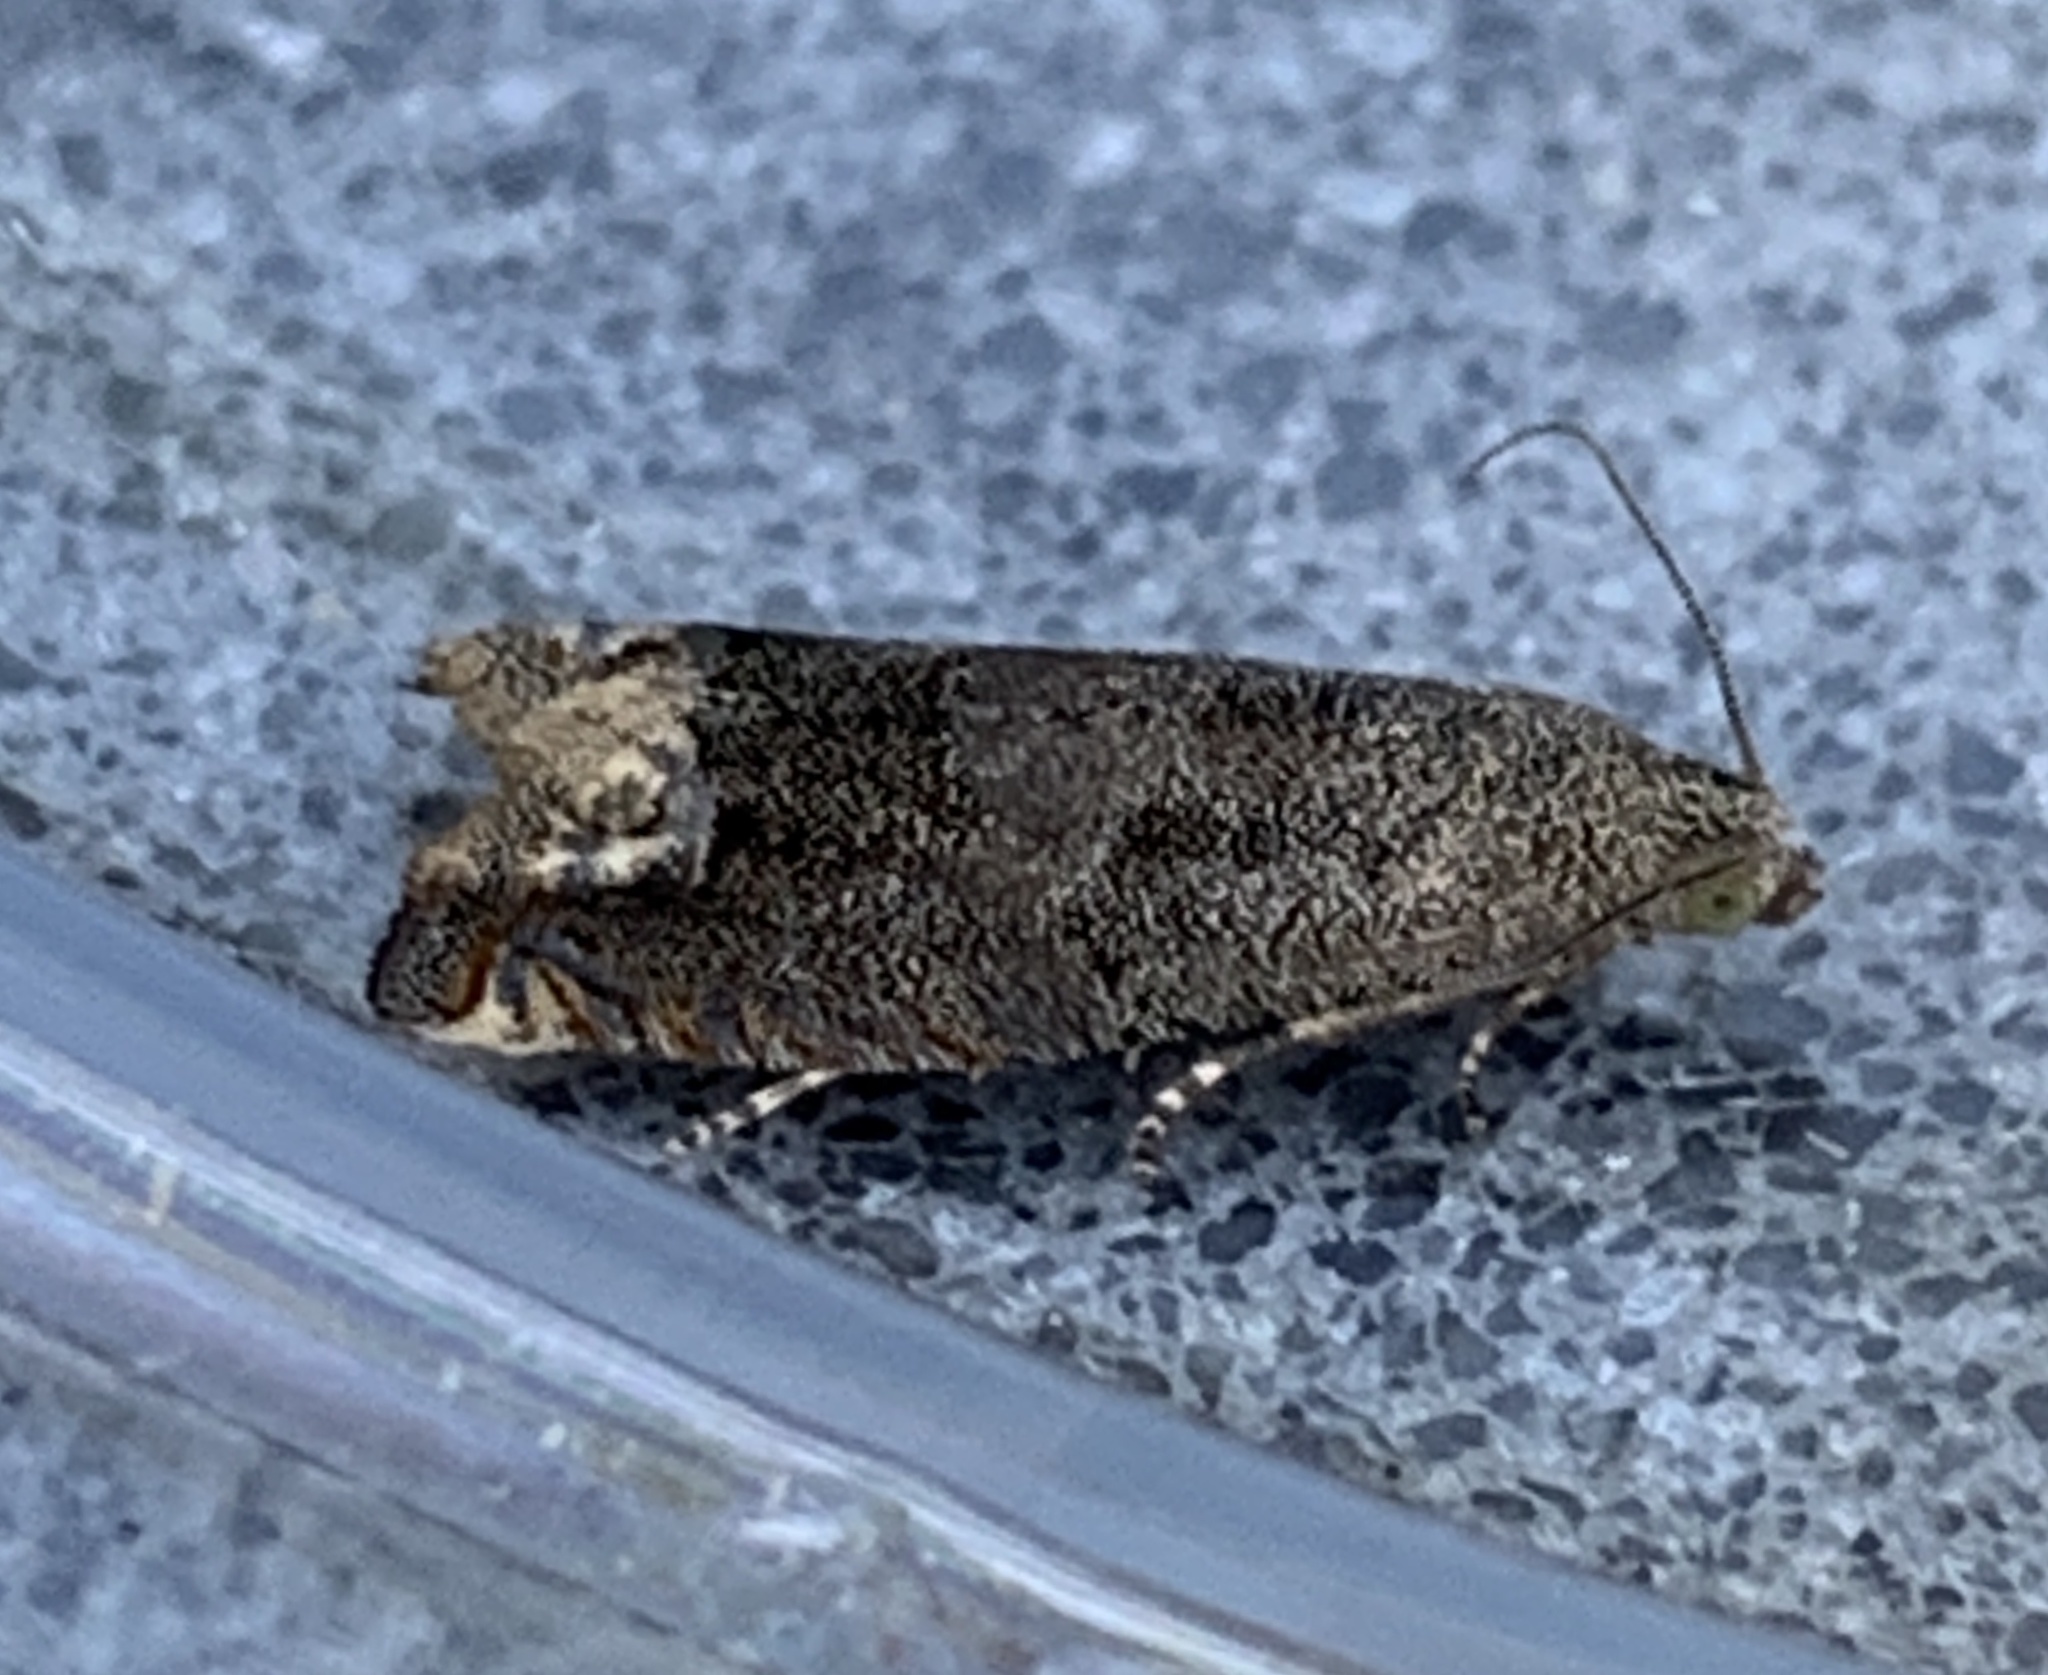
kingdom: Animalia
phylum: Arthropoda
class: Insecta
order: Lepidoptera
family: Tortricidae
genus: Epiblema
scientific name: Epiblema strenuana
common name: Ragweed borer moth
